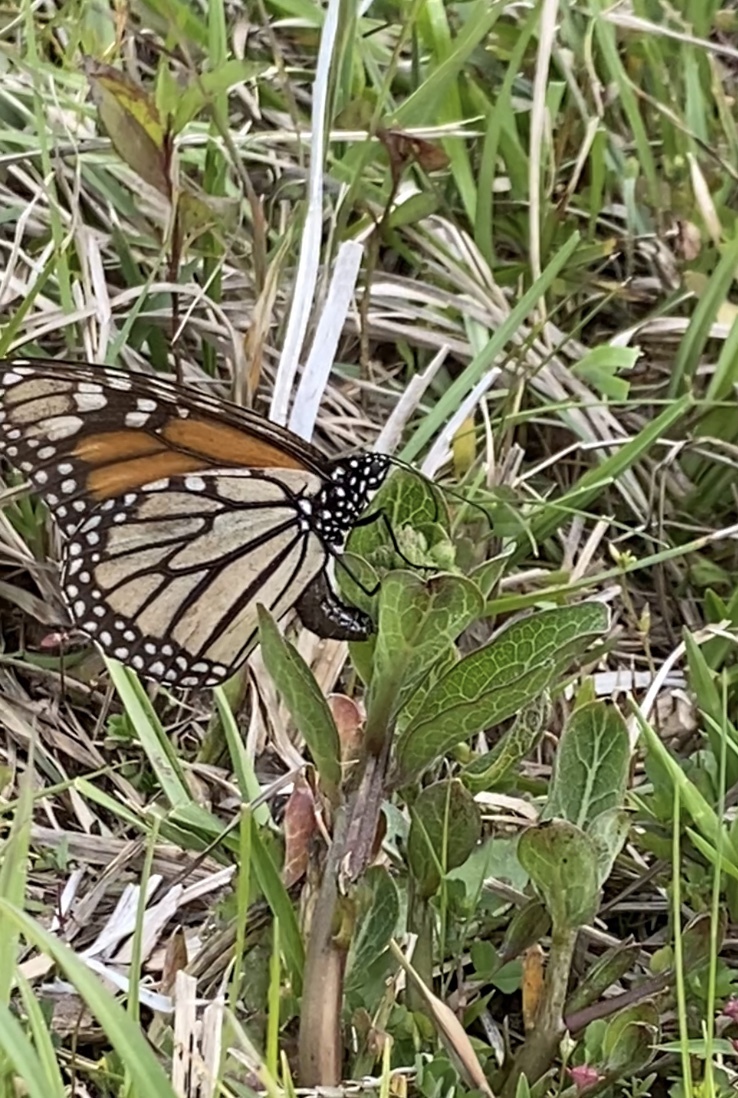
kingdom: Animalia
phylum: Arthropoda
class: Insecta
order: Lepidoptera
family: Nymphalidae
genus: Danaus
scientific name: Danaus plexippus
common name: Monarch
